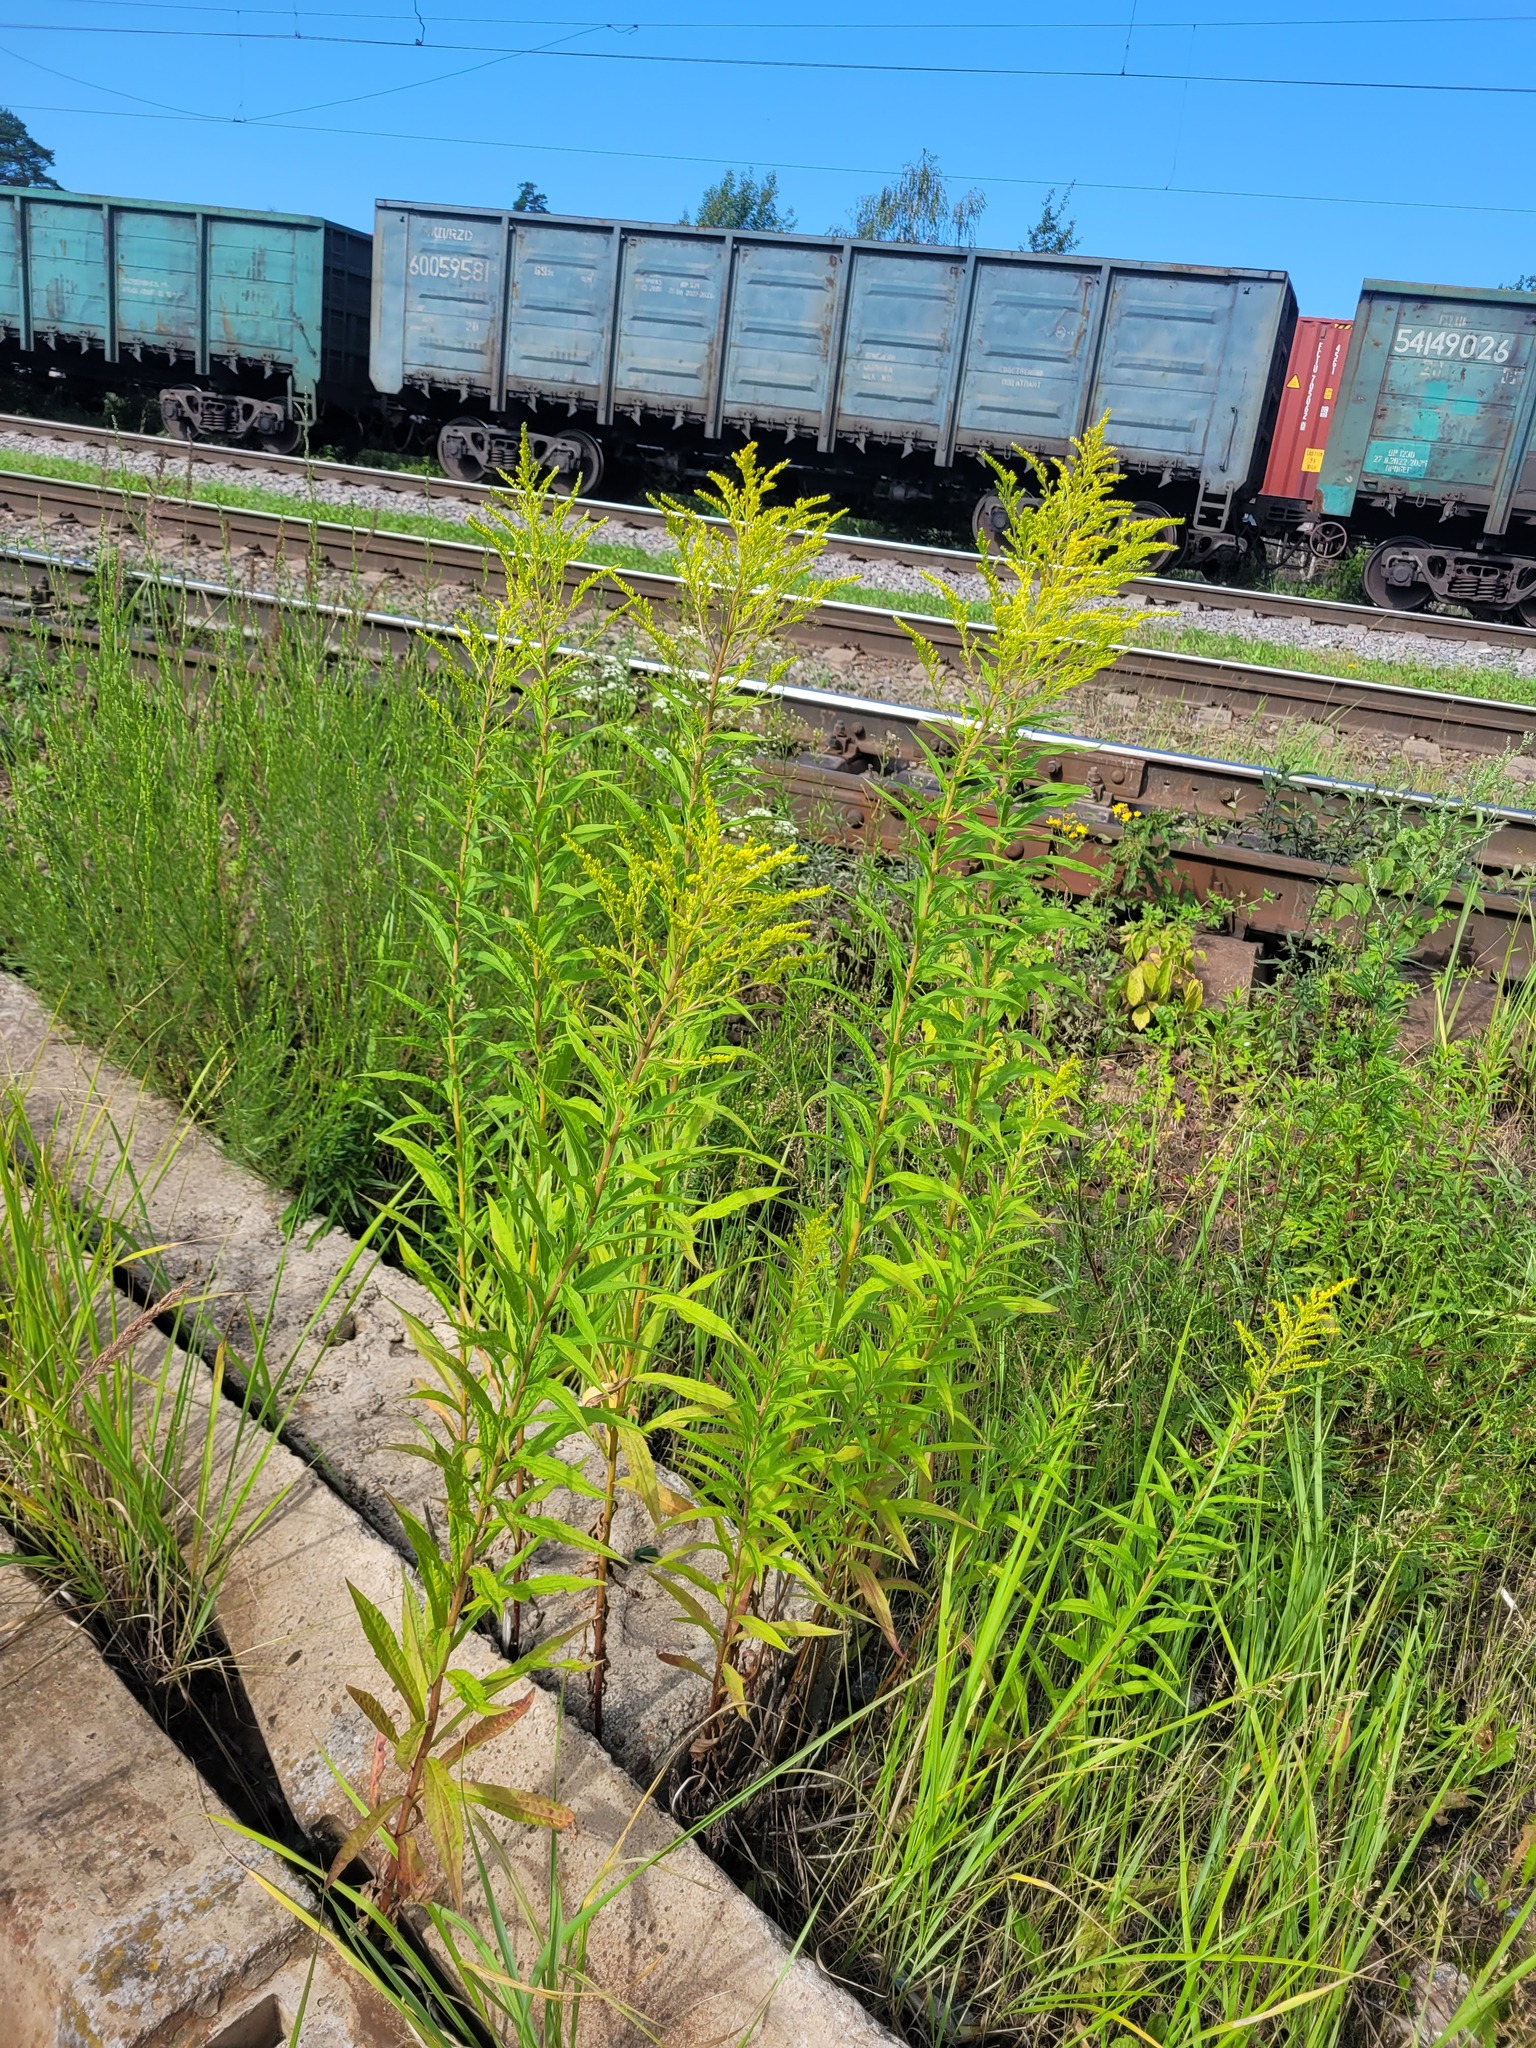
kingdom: Plantae
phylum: Tracheophyta
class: Magnoliopsida
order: Asterales
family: Asteraceae
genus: Solidago
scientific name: Solidago canadensis
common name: Canada goldenrod
